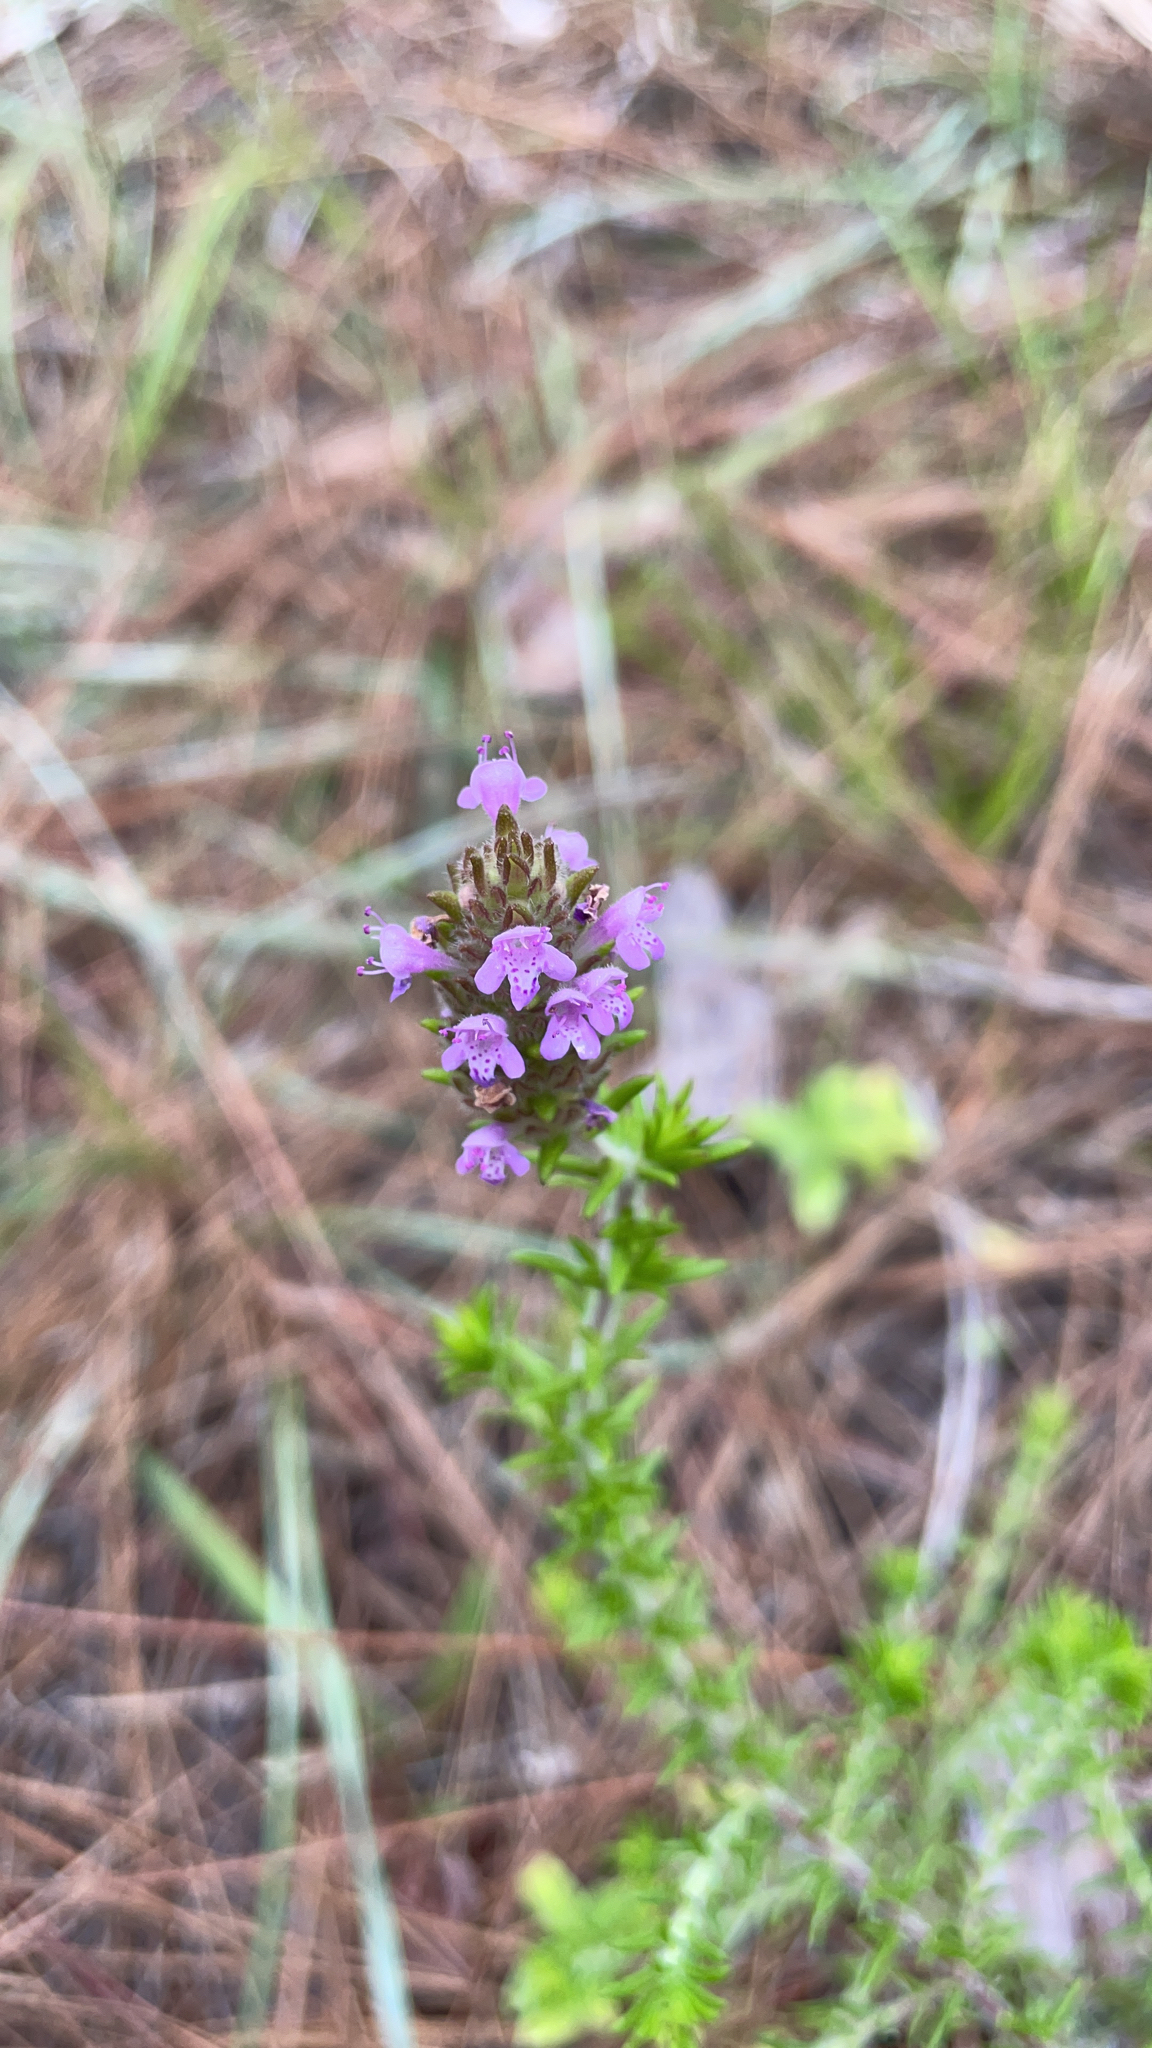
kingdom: Plantae
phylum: Tracheophyta
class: Magnoliopsida
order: Lamiales
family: Lamiaceae
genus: Piloblephis
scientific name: Piloblephis rigida
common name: Wild pennyroyal
